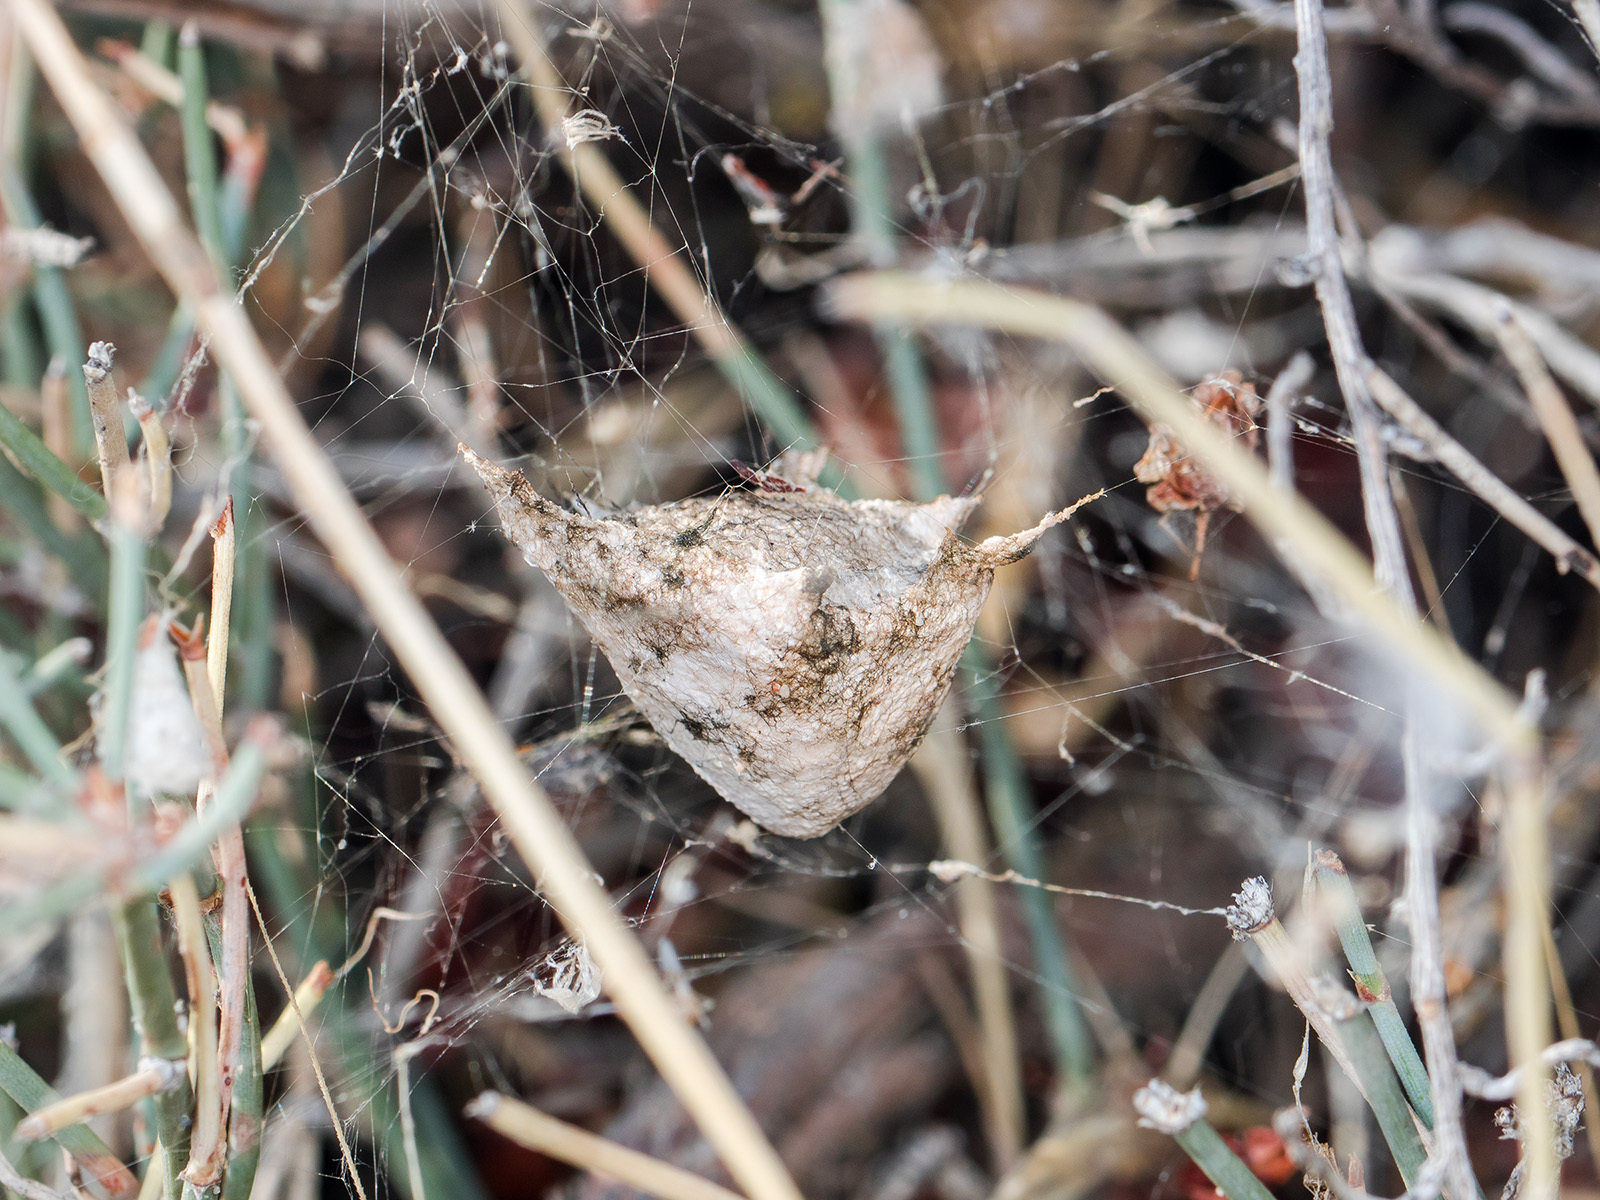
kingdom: Animalia
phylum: Arthropoda
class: Arachnida
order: Araneae
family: Araneidae
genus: Argiope
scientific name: Argiope lobata
